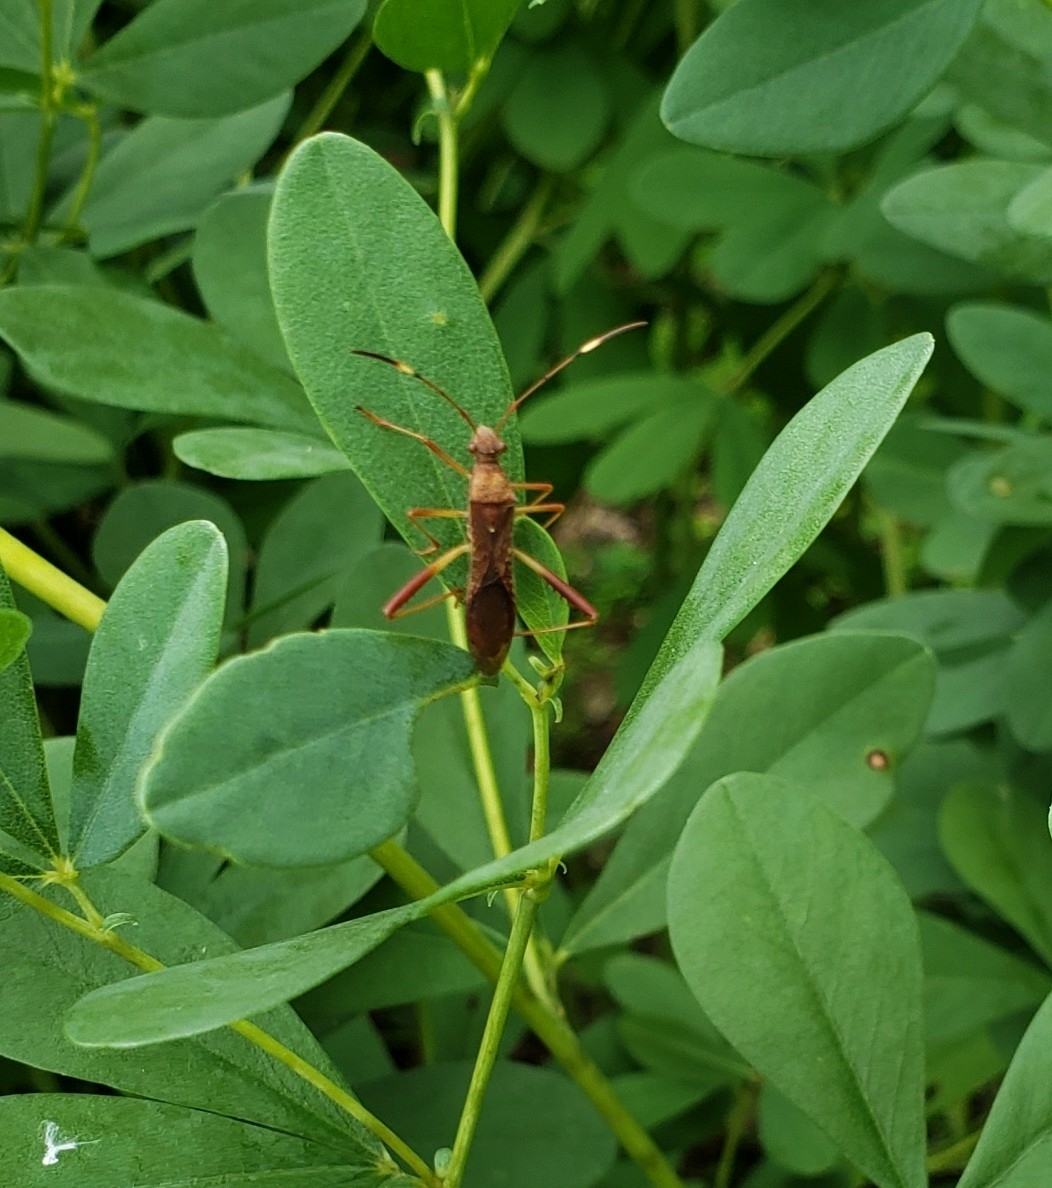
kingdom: Animalia
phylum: Arthropoda
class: Insecta
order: Hemiptera
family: Alydidae
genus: Megalotomus
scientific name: Megalotomus quinquespinosus
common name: Lupine bug
